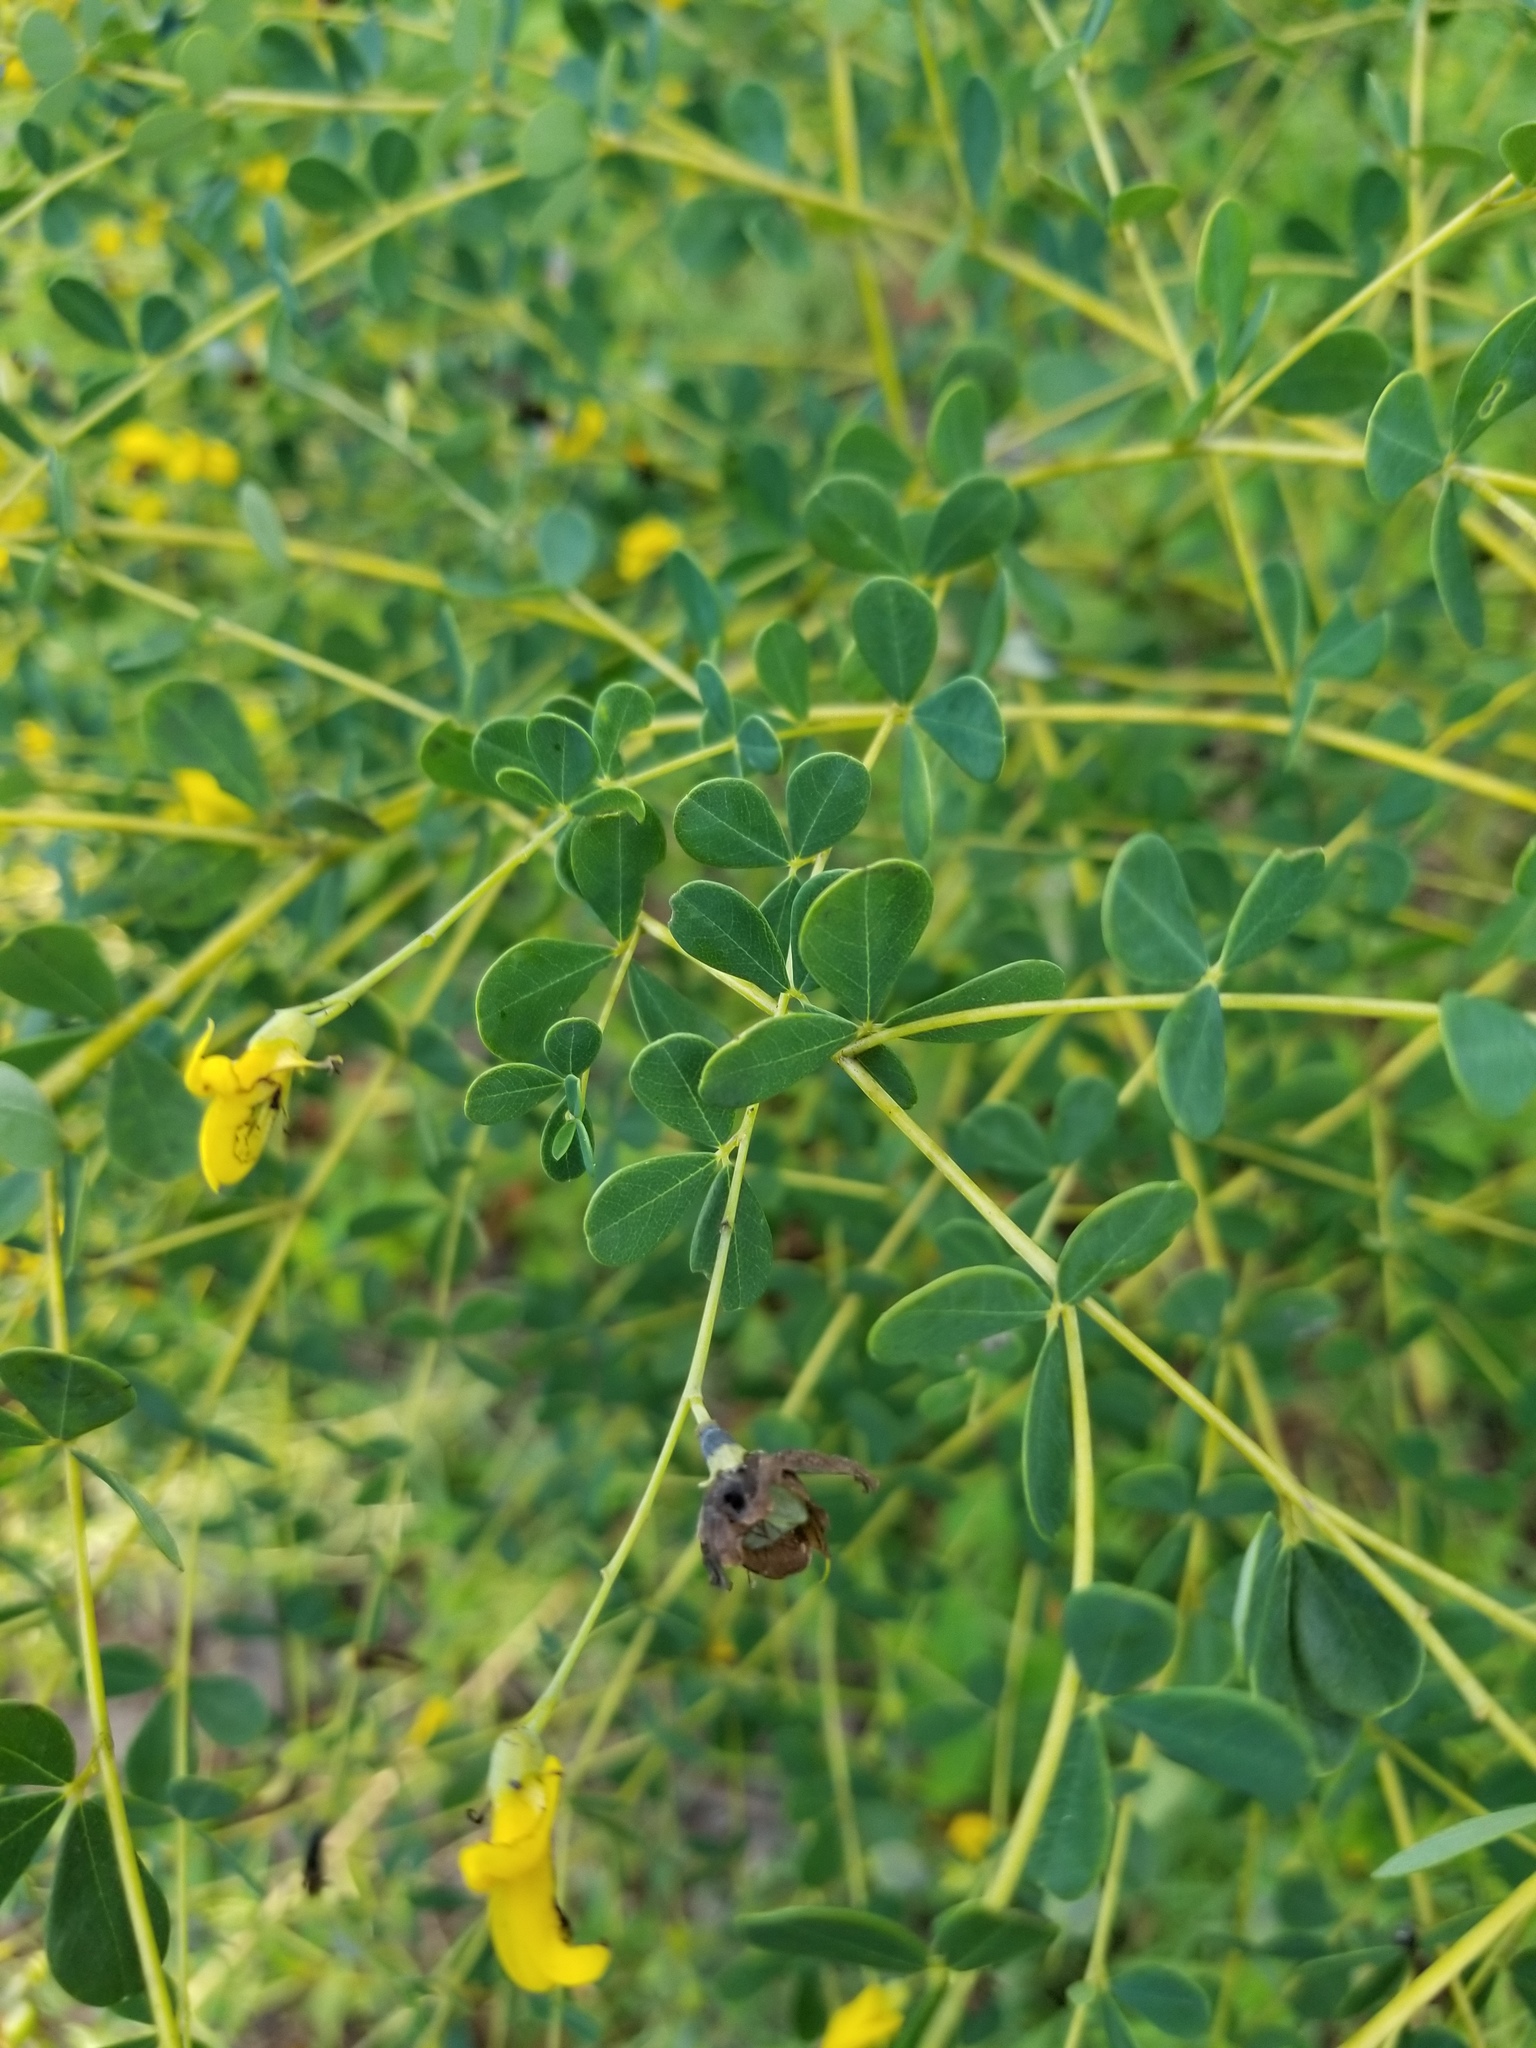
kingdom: Plantae
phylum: Tracheophyta
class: Magnoliopsida
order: Fabales
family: Fabaceae
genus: Baptisia
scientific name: Baptisia tinctoria
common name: Wild indigo
